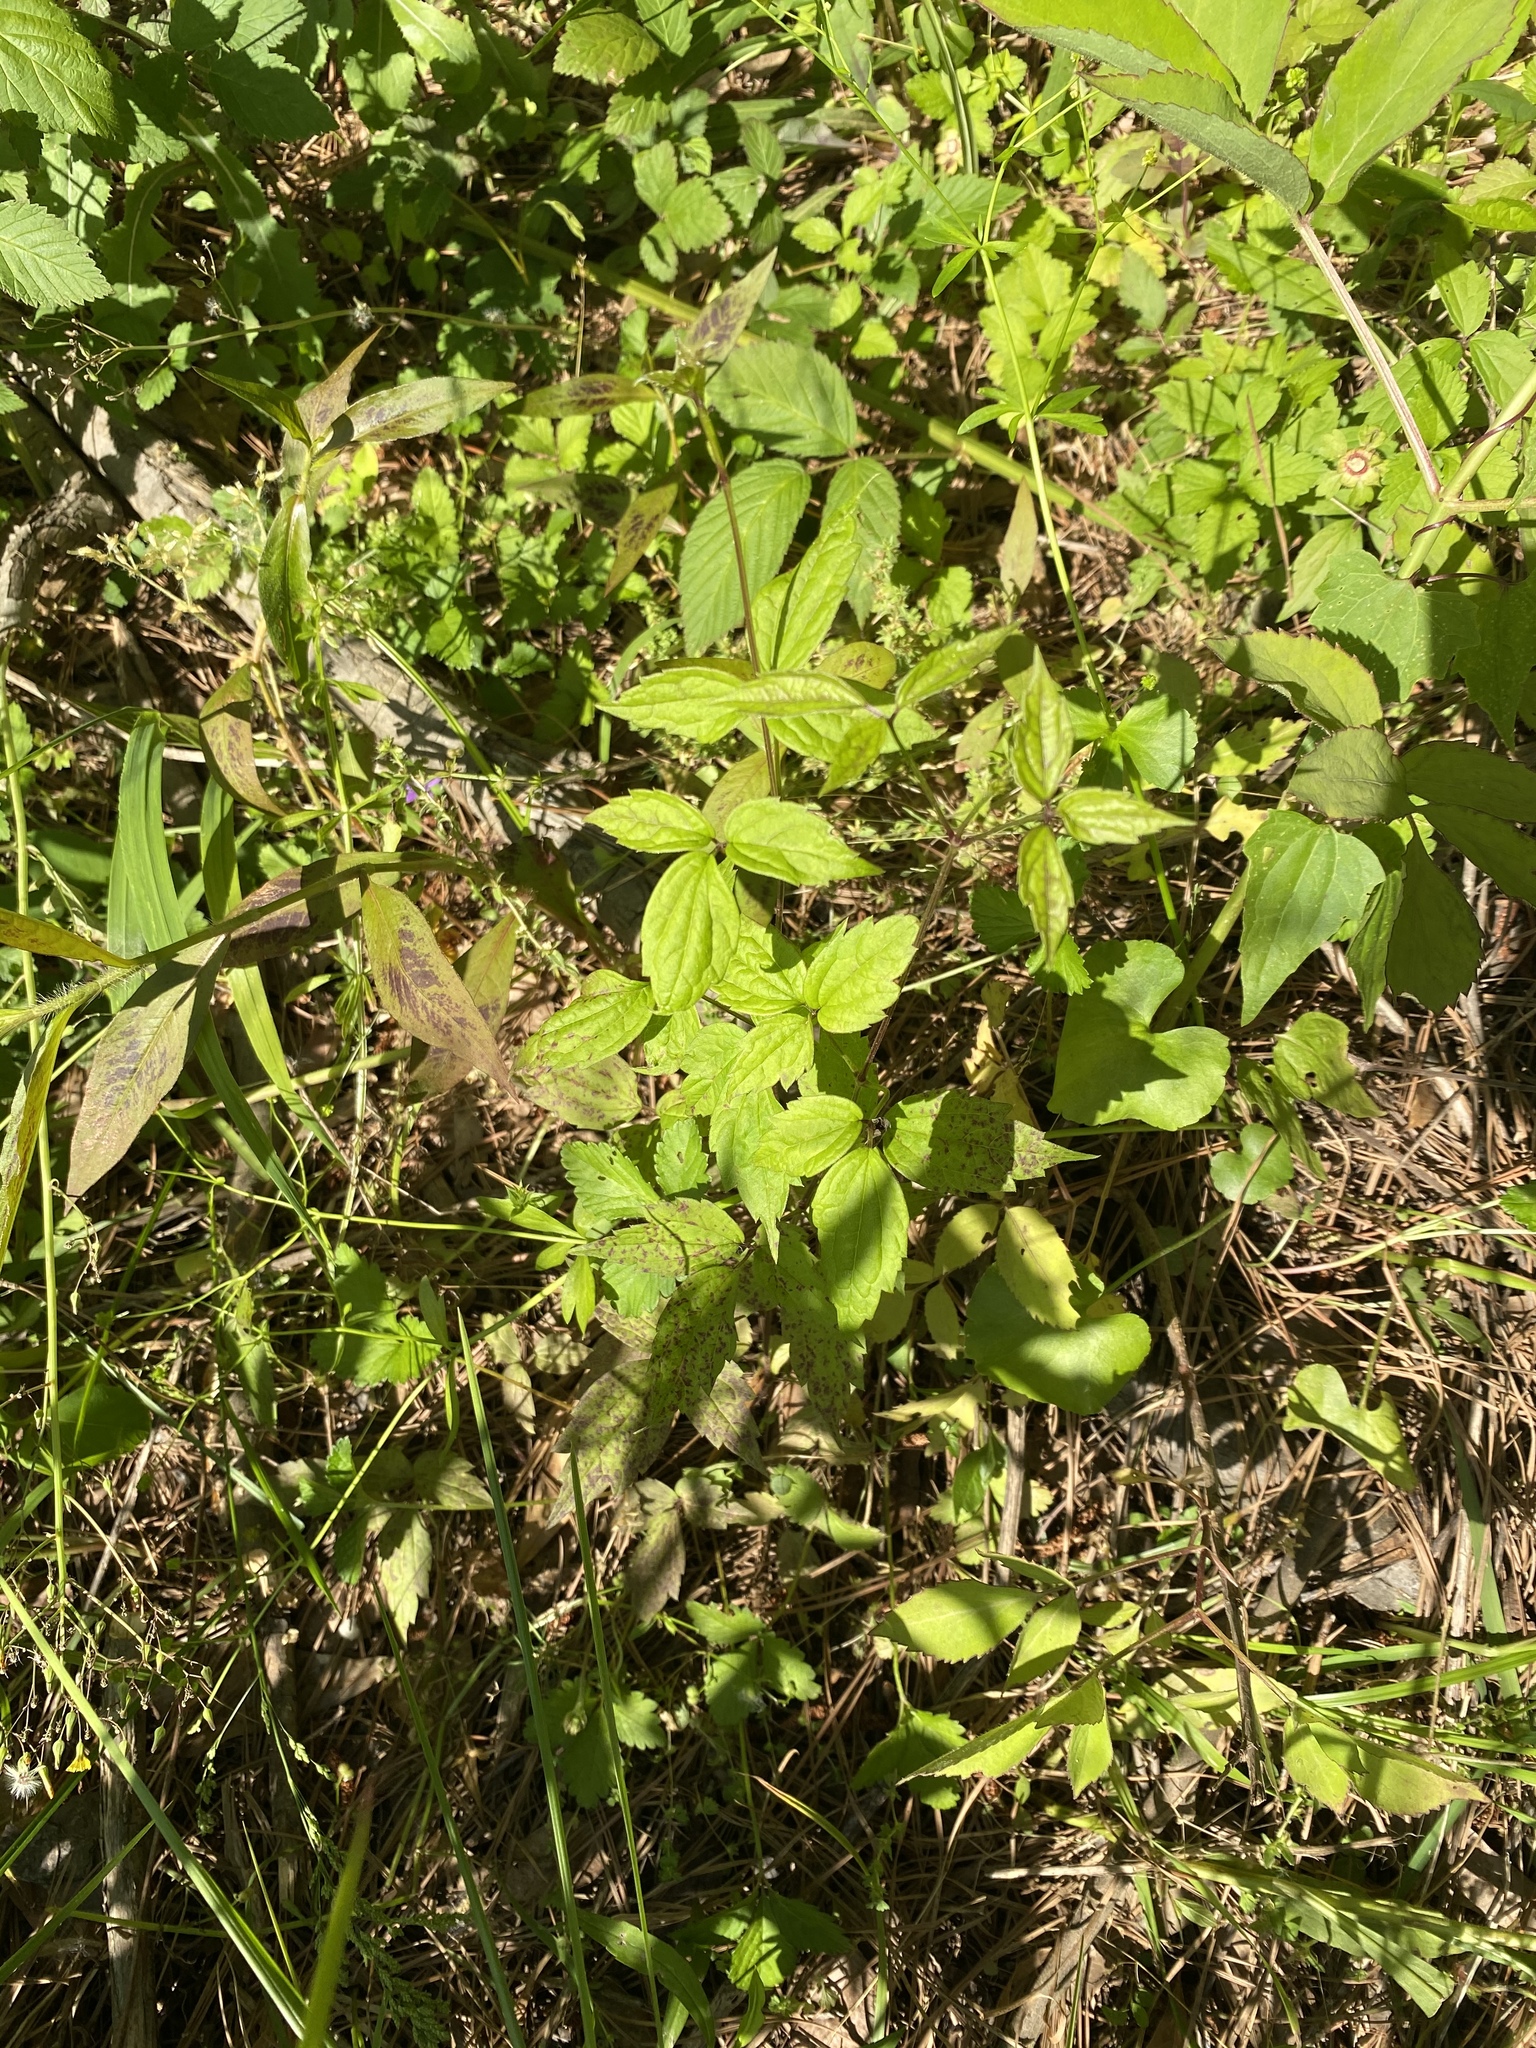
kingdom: Plantae
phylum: Tracheophyta
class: Magnoliopsida
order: Ranunculales
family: Ranunculaceae
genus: Clematis
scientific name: Clematis virginiana
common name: Virgin's-bower
